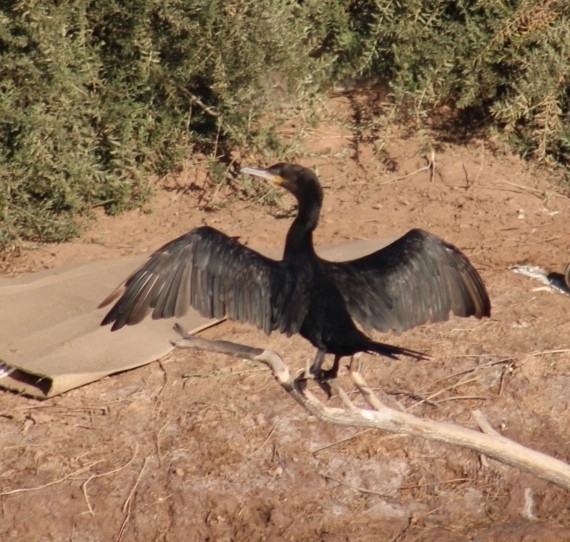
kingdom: Animalia
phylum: Chordata
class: Aves
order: Suliformes
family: Phalacrocoracidae
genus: Phalacrocorax
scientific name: Phalacrocorax auritus
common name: Double-crested cormorant
